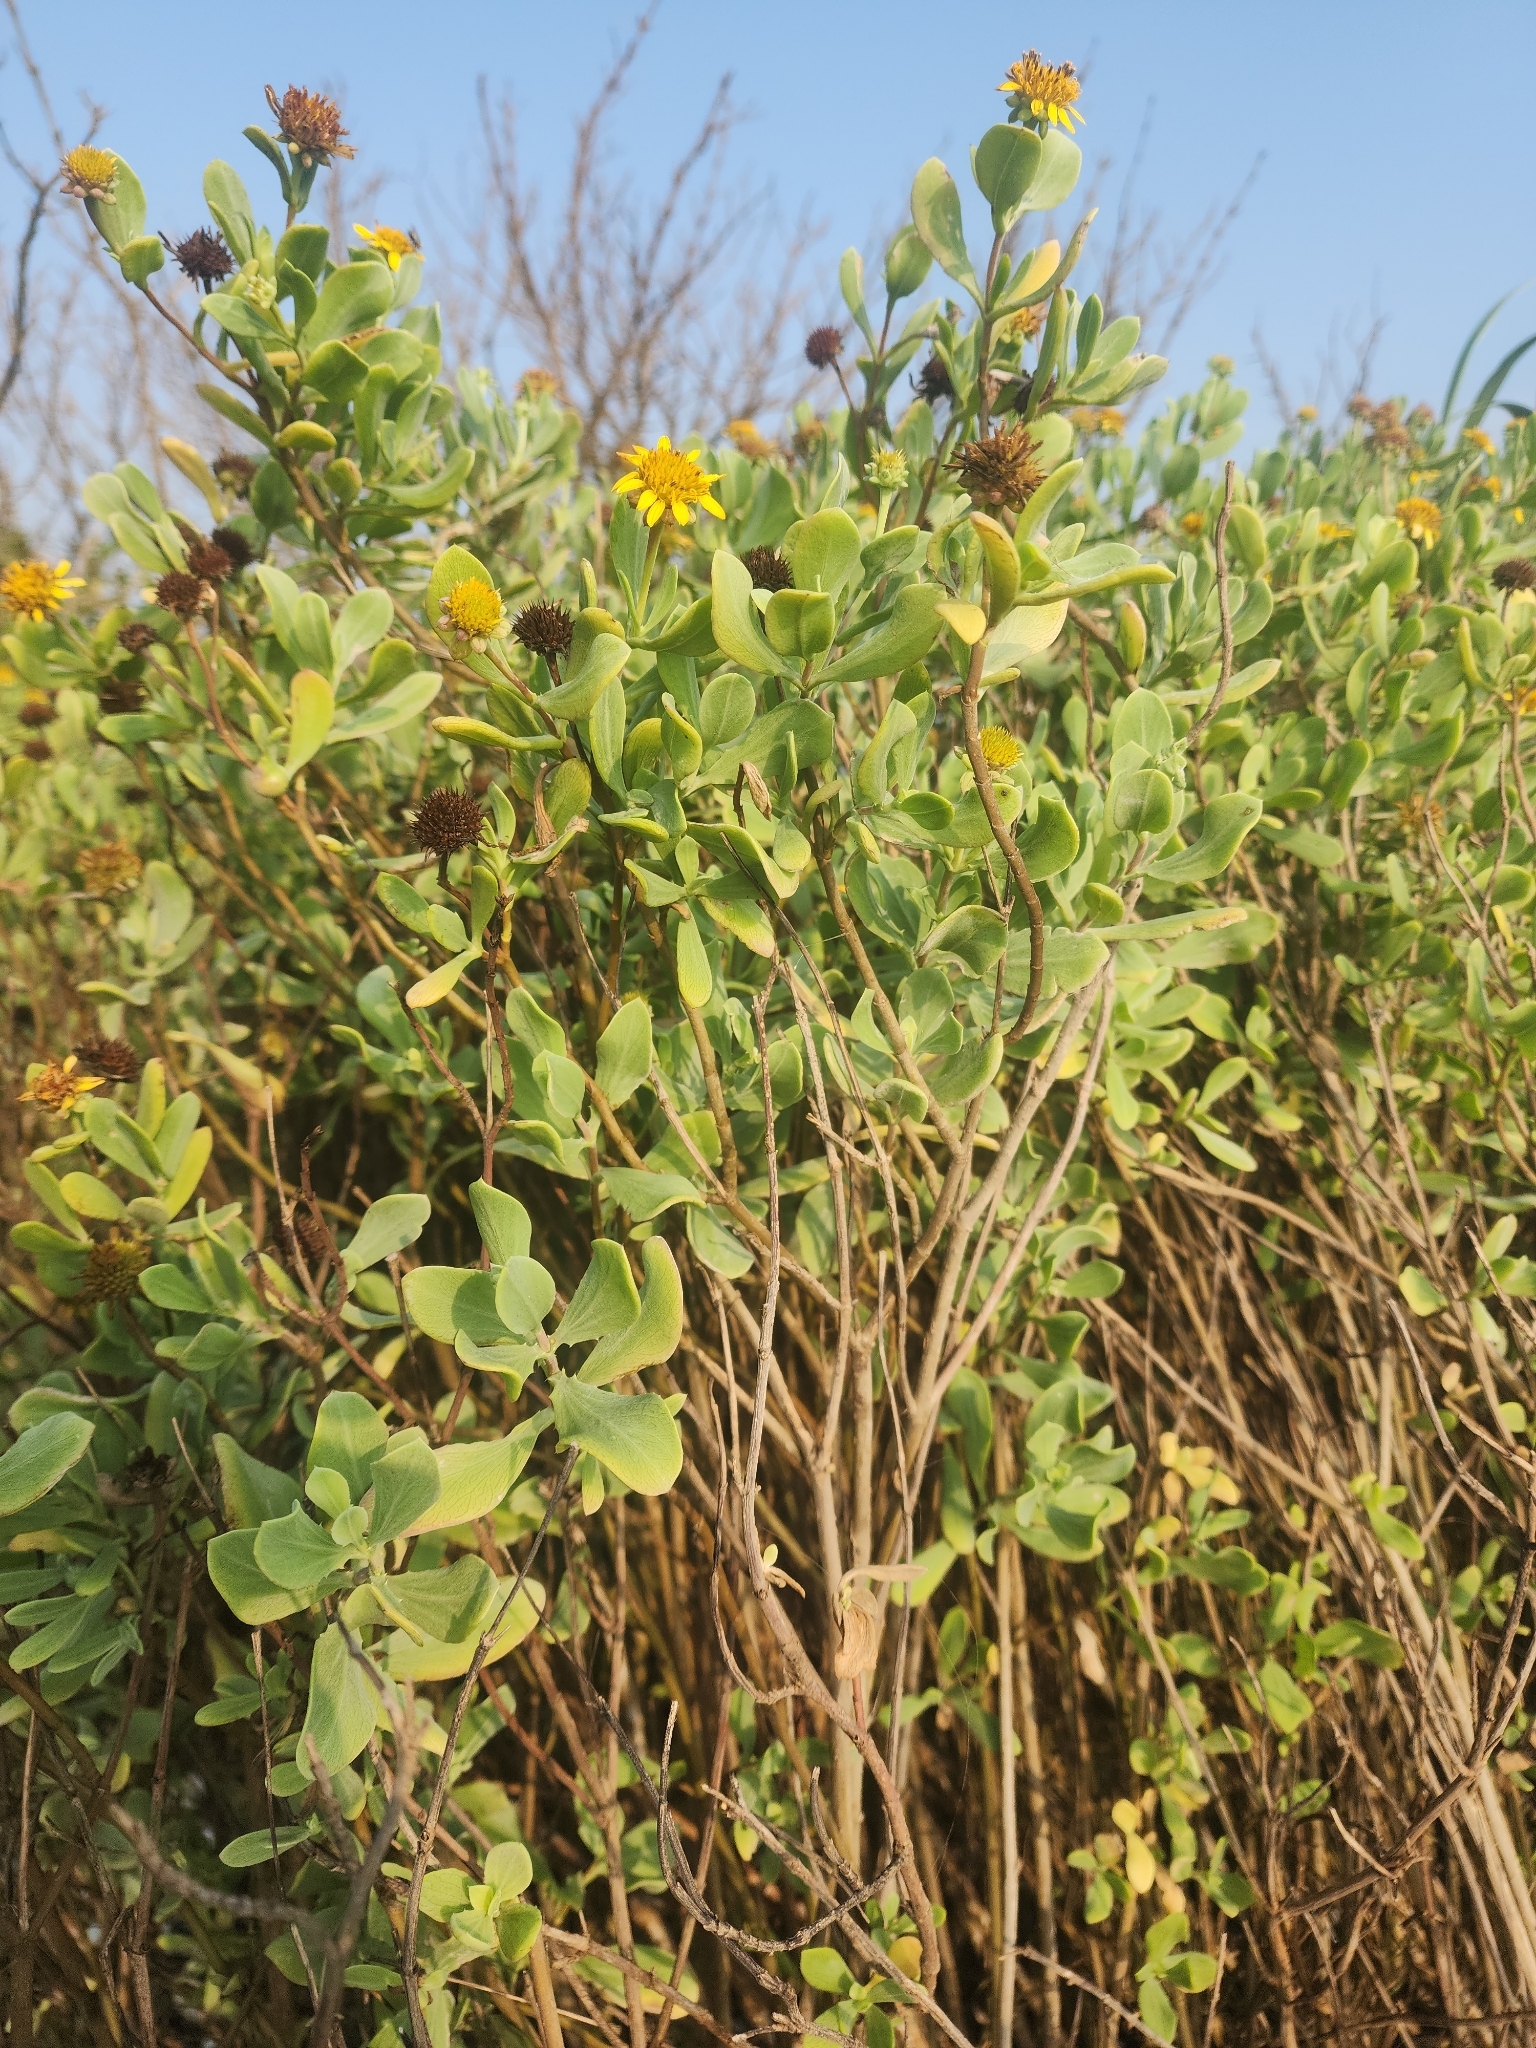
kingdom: Plantae
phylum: Tracheophyta
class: Magnoliopsida
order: Asterales
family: Asteraceae
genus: Borrichia
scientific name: Borrichia frutescens
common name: Sea oxeye
